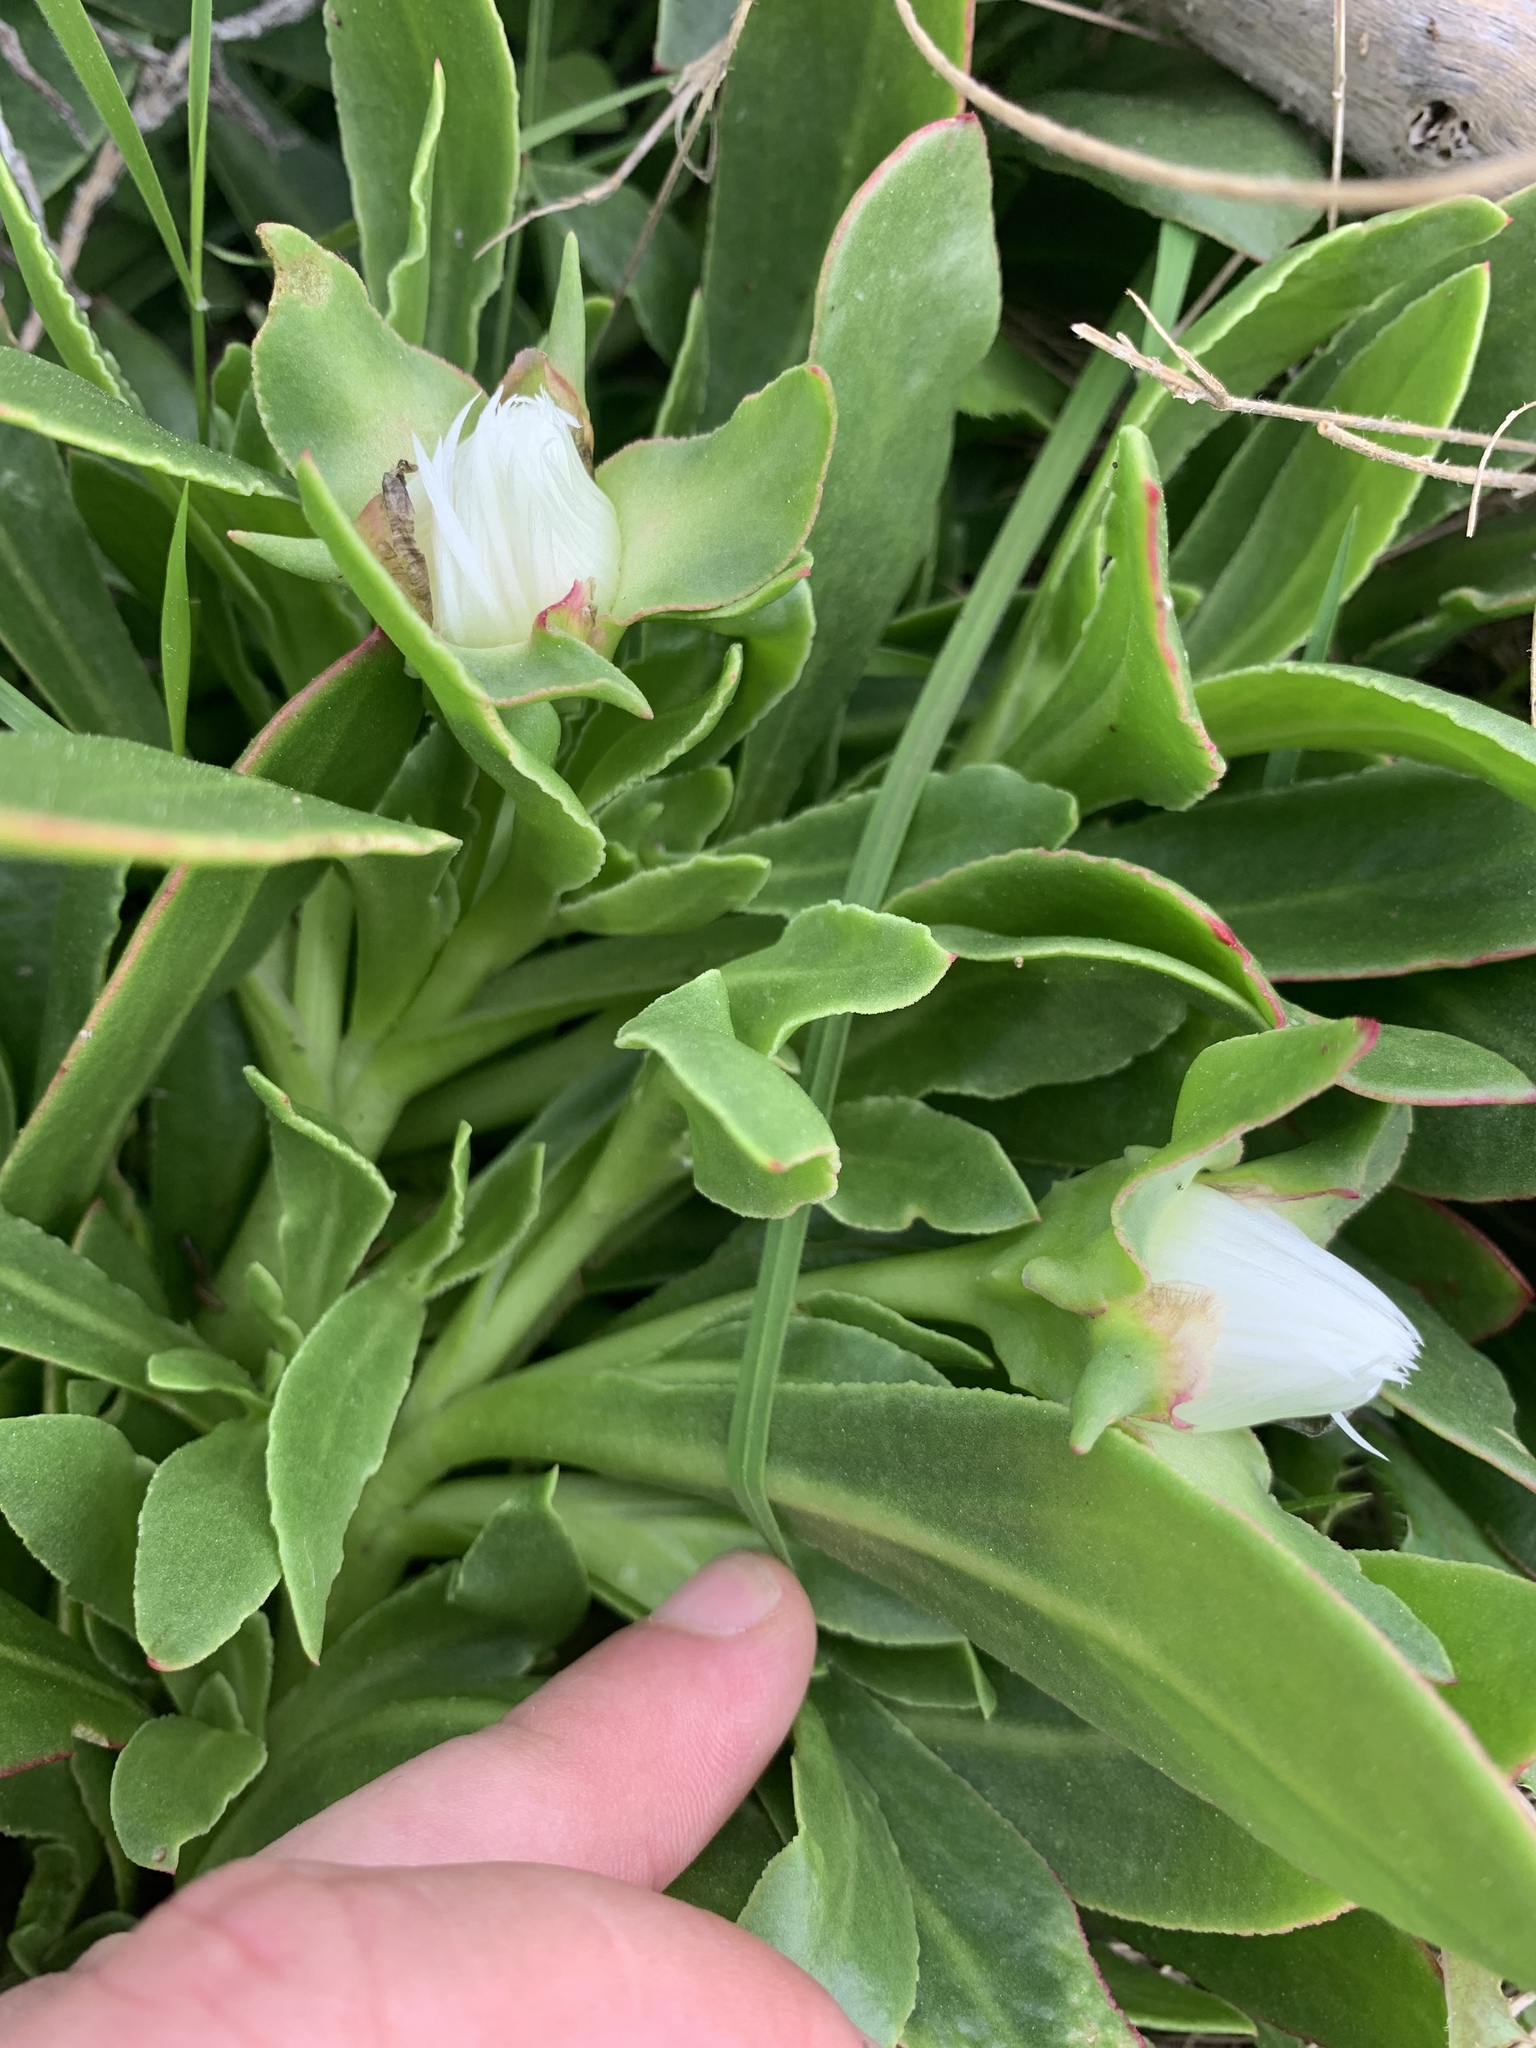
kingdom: Plantae
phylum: Tracheophyta
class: Magnoliopsida
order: Caryophyllales
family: Aizoaceae
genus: Skiatophytum
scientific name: Skiatophytum tripolium
